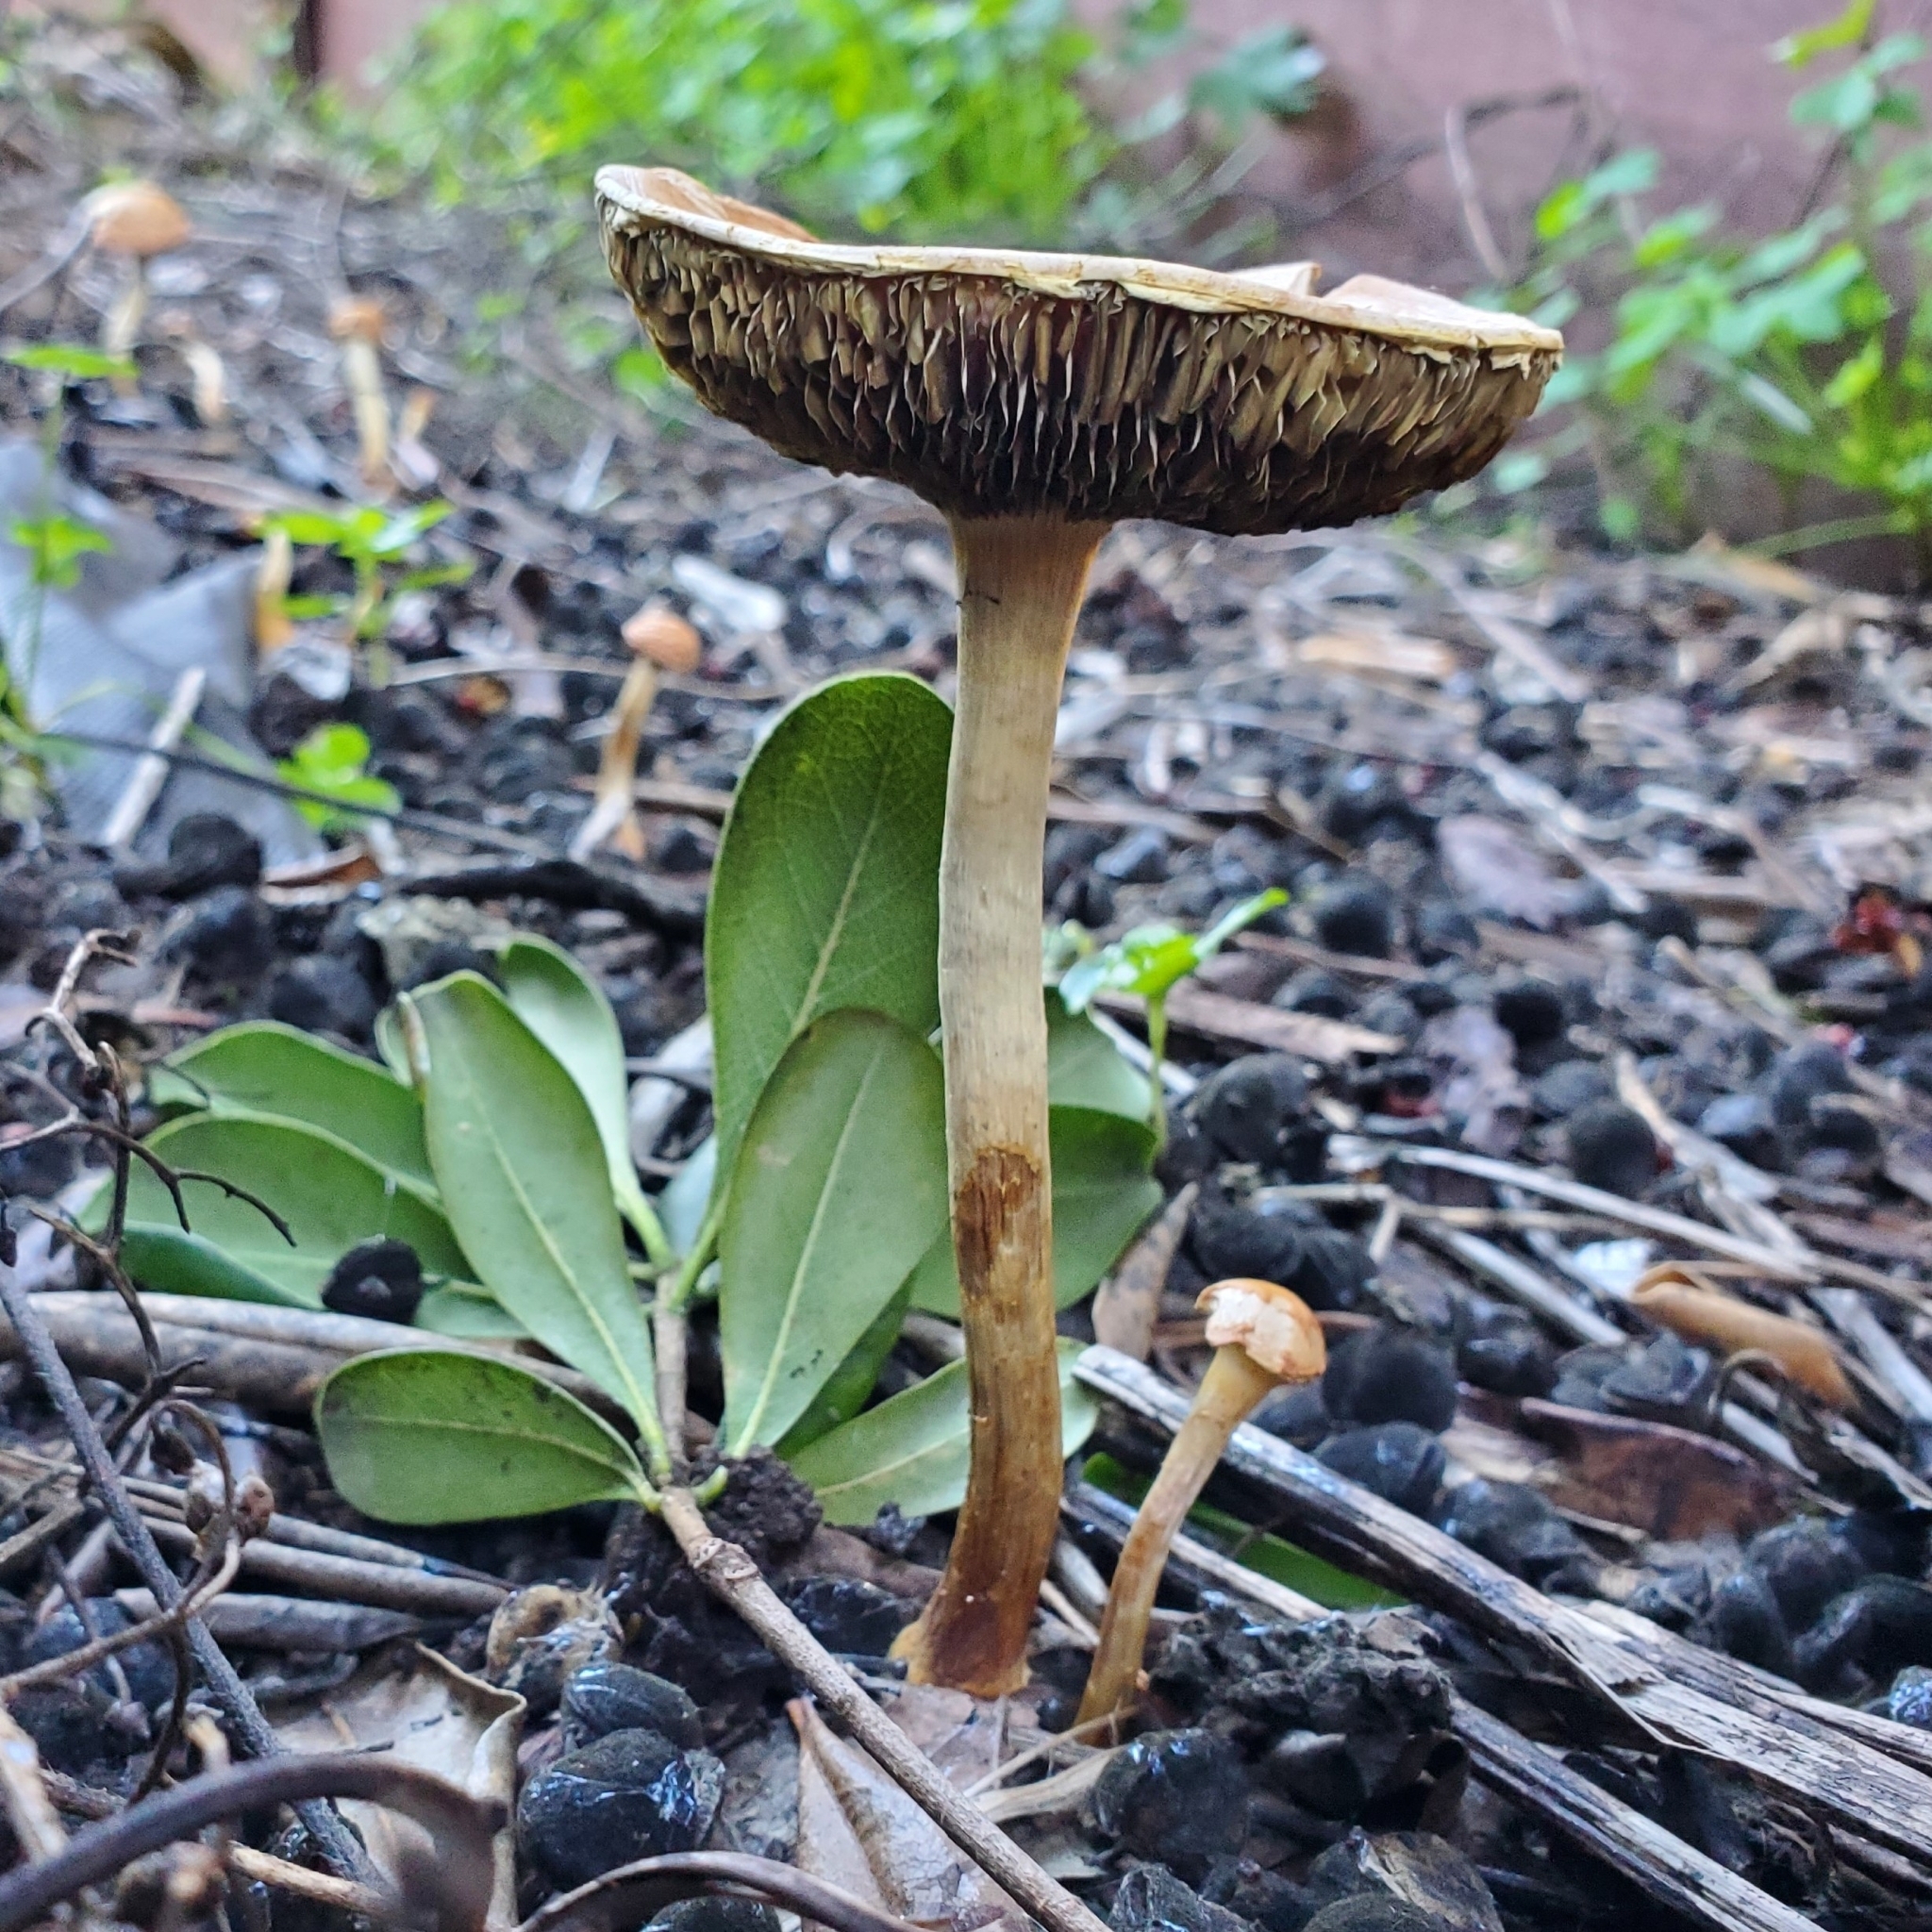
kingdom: Fungi
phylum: Basidiomycota
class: Agaricomycetes
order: Agaricales
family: Strophariaceae
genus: Leratiomyces
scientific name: Leratiomyces percevalii
